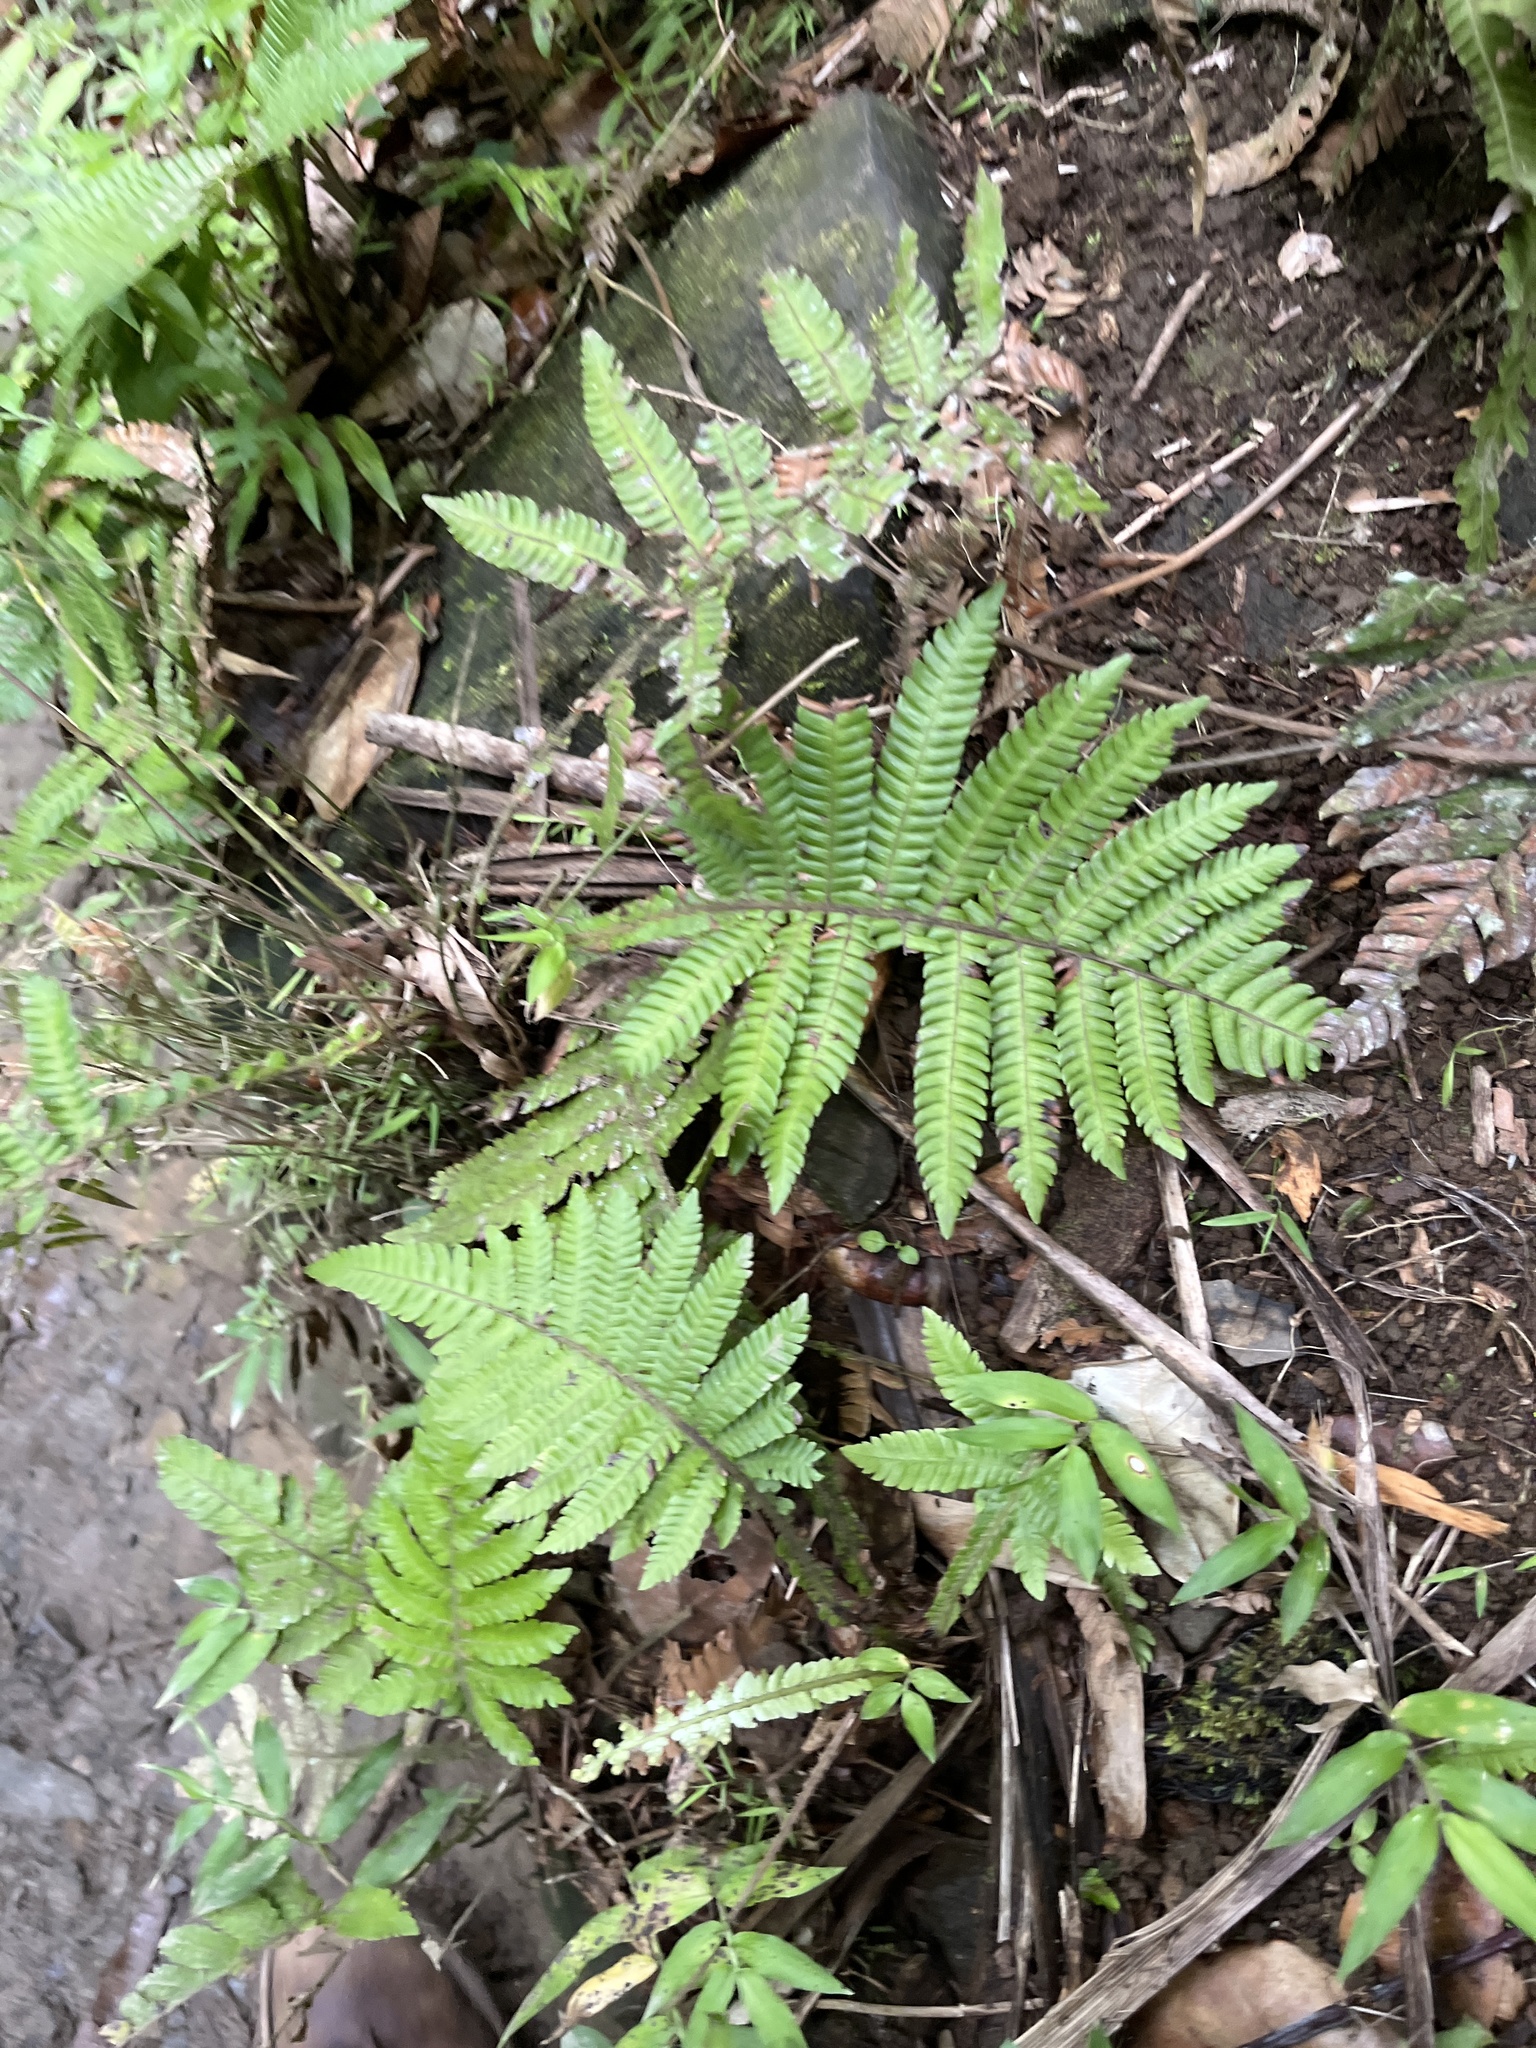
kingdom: Plantae
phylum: Tracheophyta
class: Polypodiopsida
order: Polypodiales
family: Thelypteridaceae
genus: Steiropteris
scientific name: Steiropteris deltoidea
